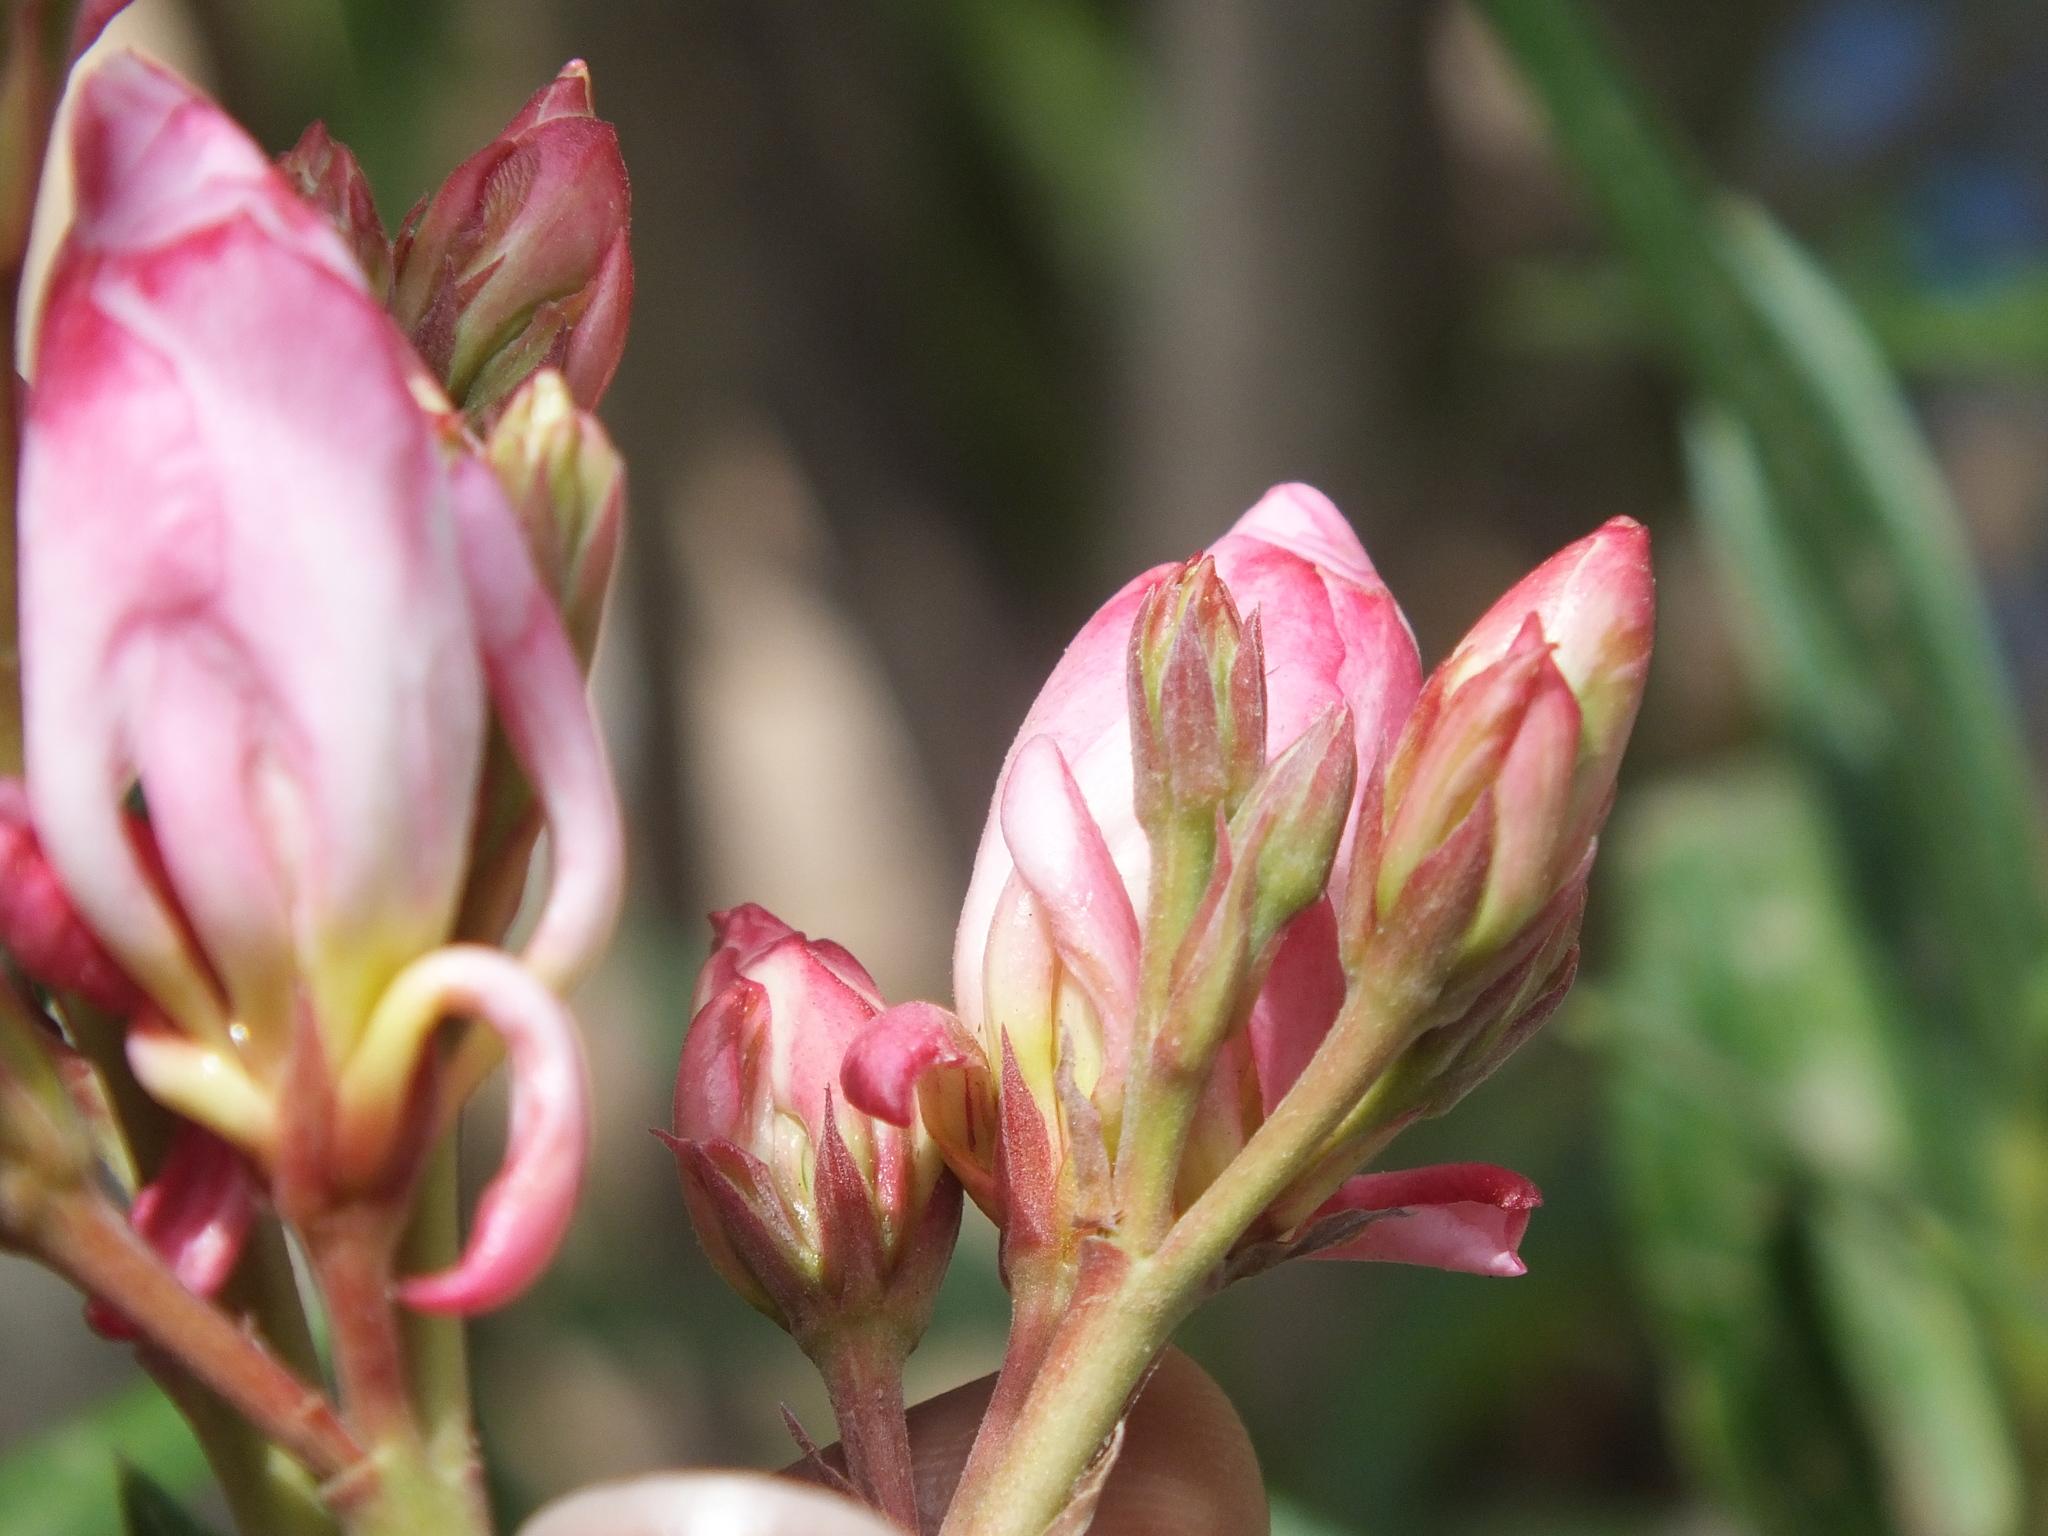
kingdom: Plantae
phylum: Tracheophyta
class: Magnoliopsida
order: Gentianales
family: Apocynaceae
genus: Nerium
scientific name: Nerium oleander
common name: Oleander
